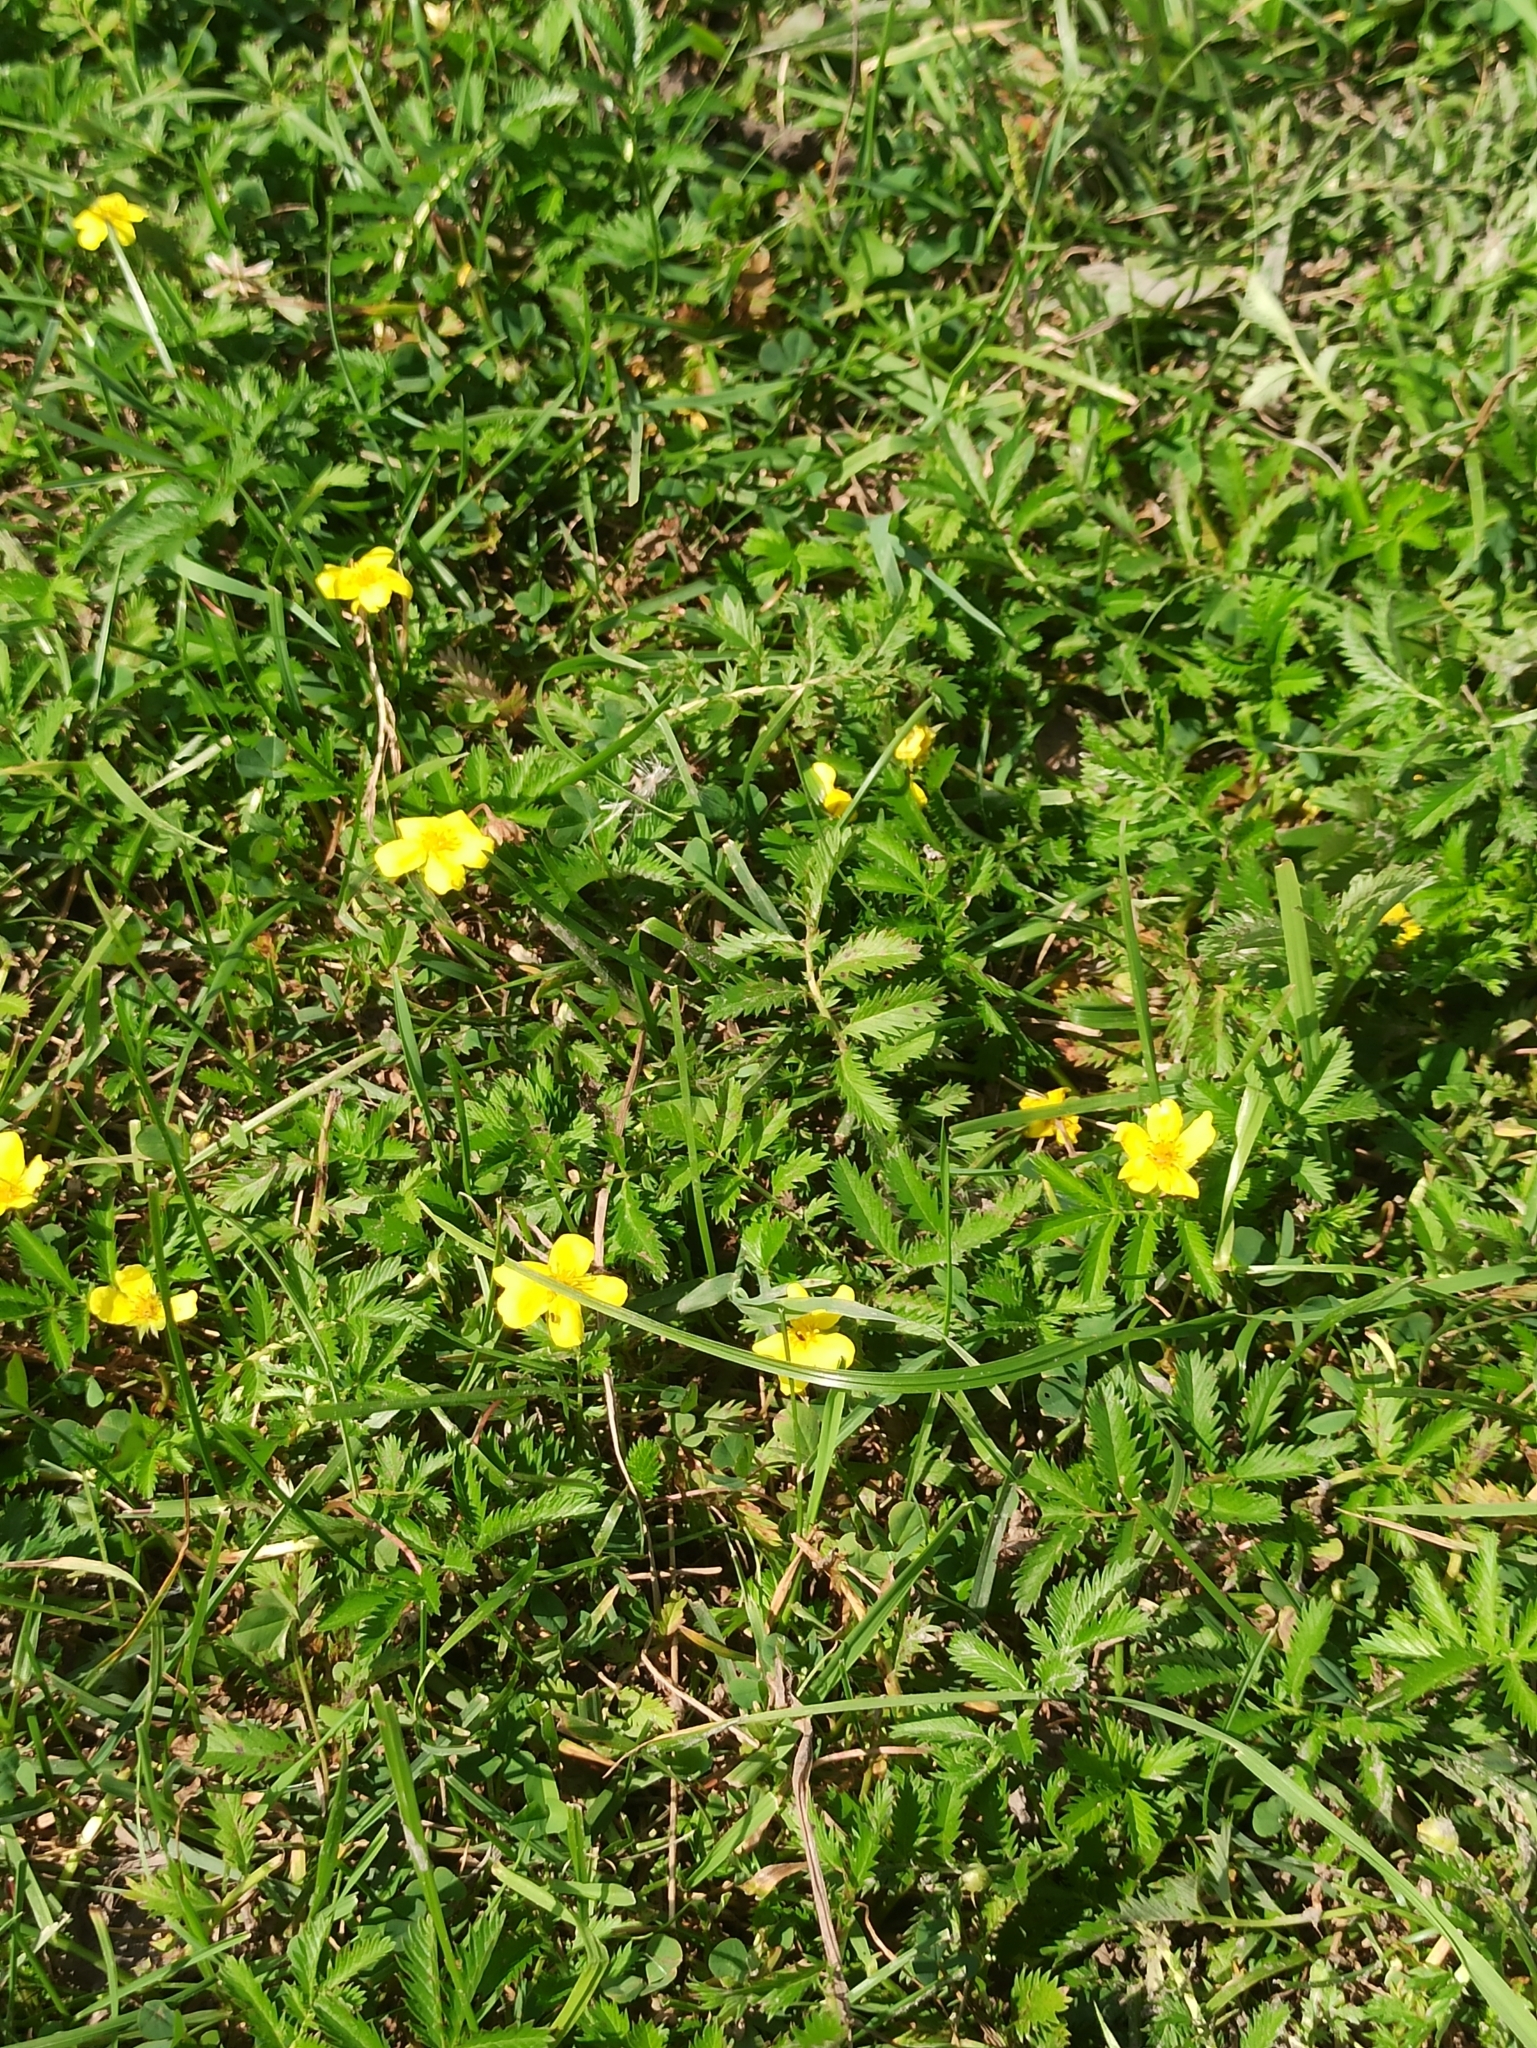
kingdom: Plantae
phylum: Tracheophyta
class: Magnoliopsida
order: Rosales
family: Rosaceae
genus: Argentina
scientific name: Argentina anserina
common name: Common silverweed
